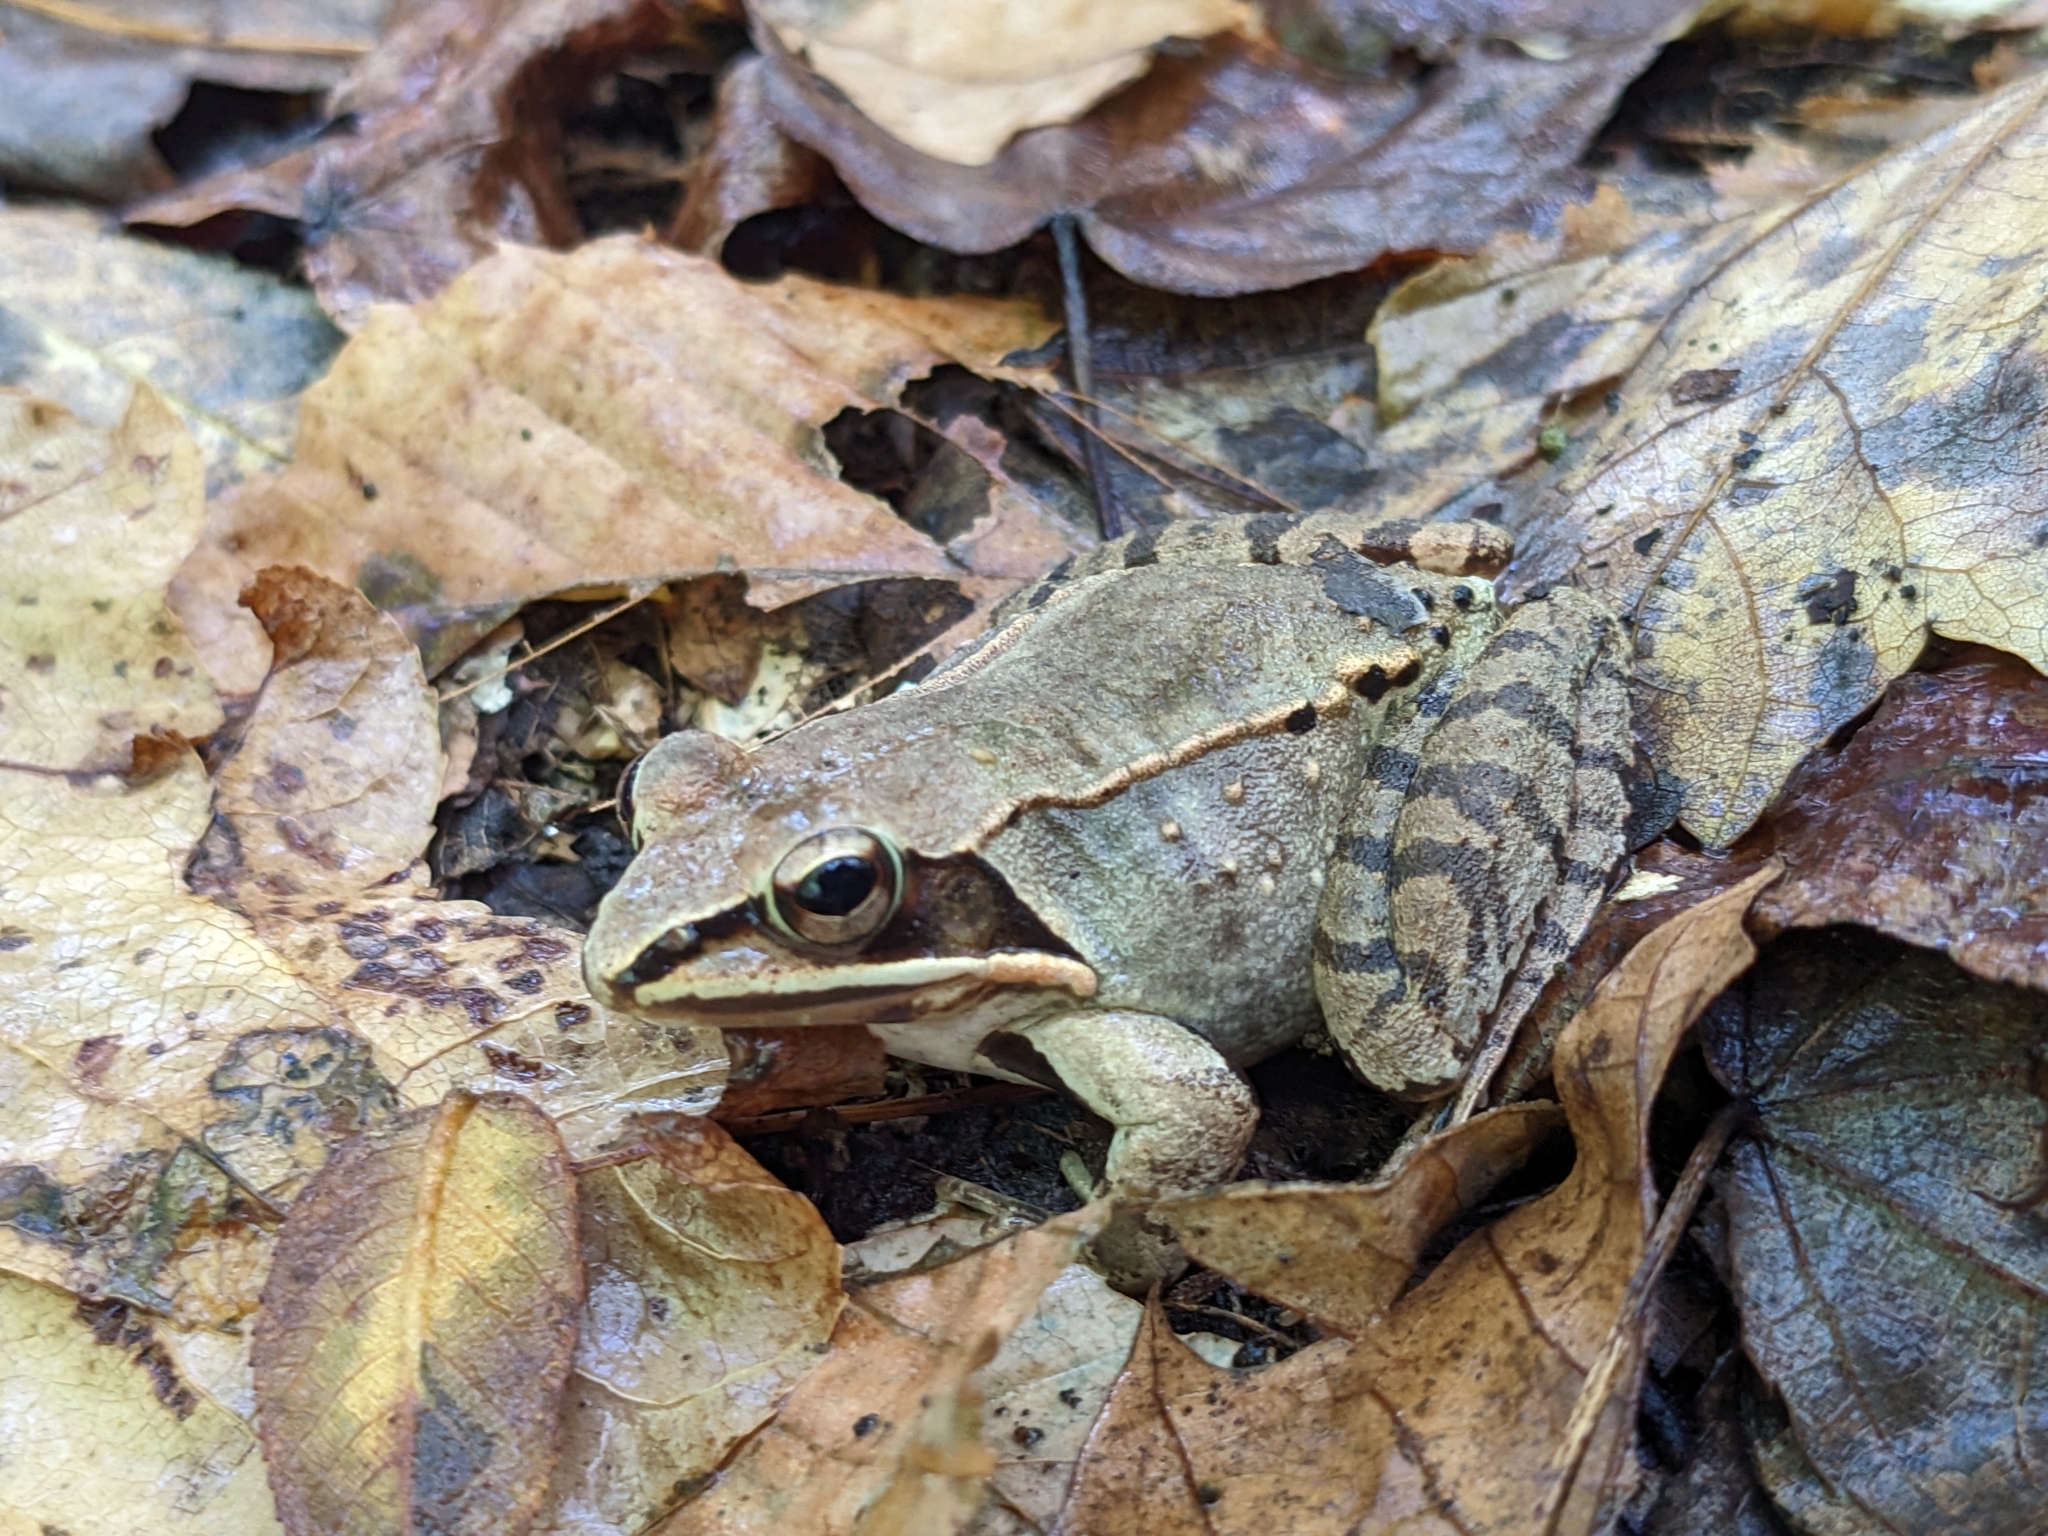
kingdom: Animalia
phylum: Chordata
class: Amphibia
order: Anura
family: Ranidae
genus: Lithobates
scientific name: Lithobates sylvaticus
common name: Wood frog
